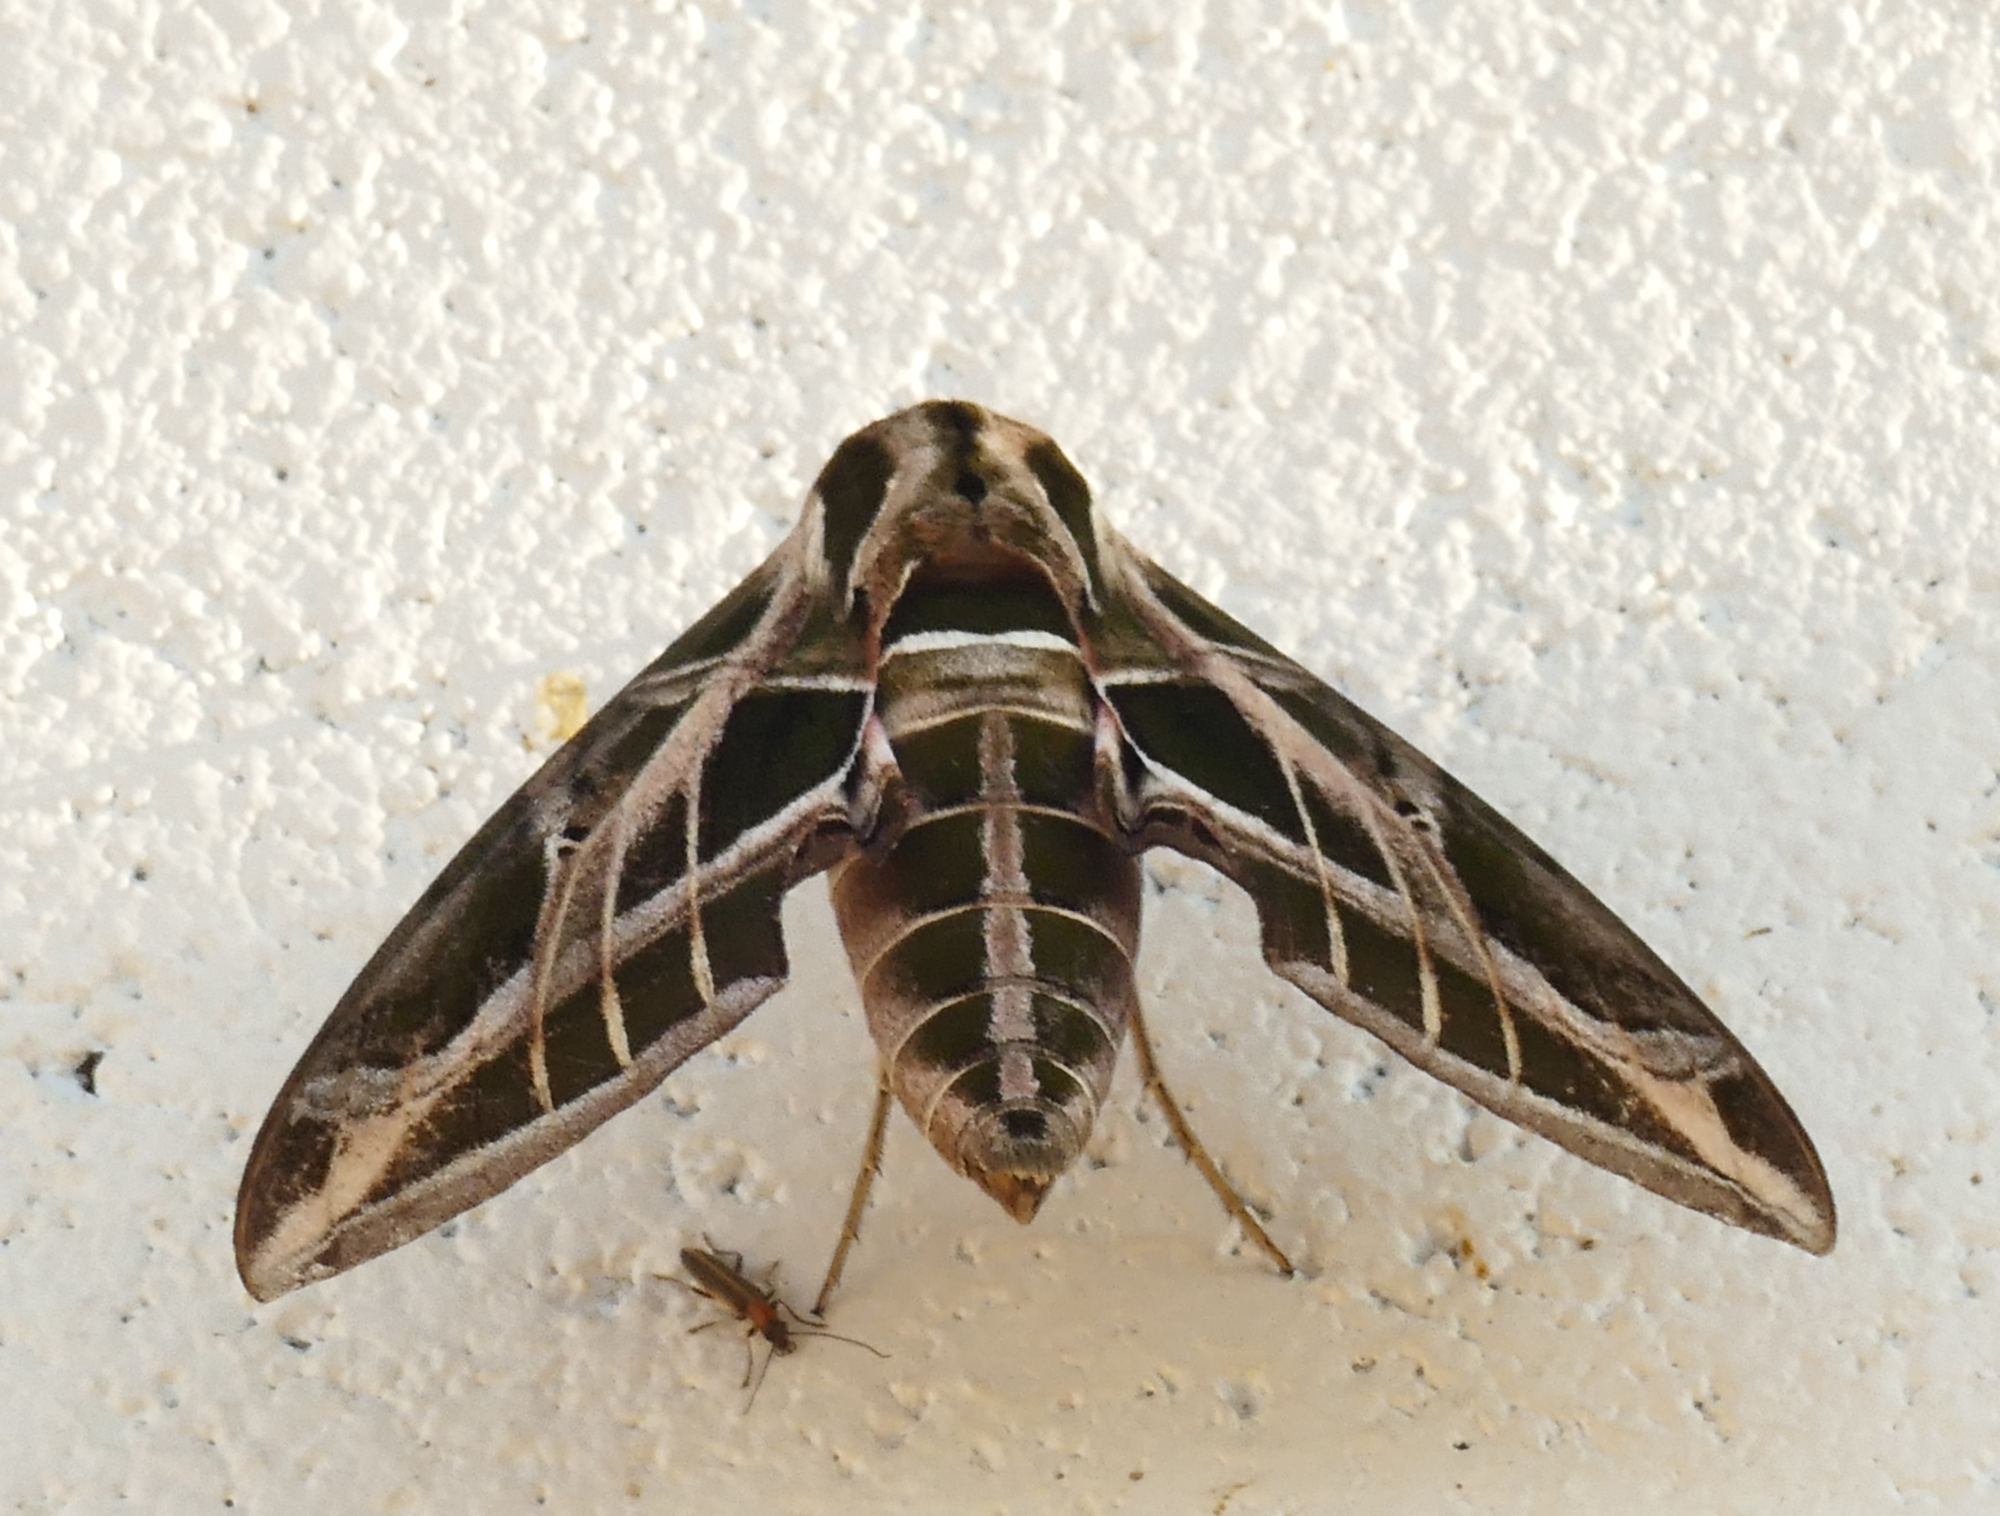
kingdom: Animalia
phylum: Arthropoda
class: Insecta
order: Lepidoptera
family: Sphingidae
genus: Eumorpha
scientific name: Eumorpha vitis
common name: Vine sphinx
